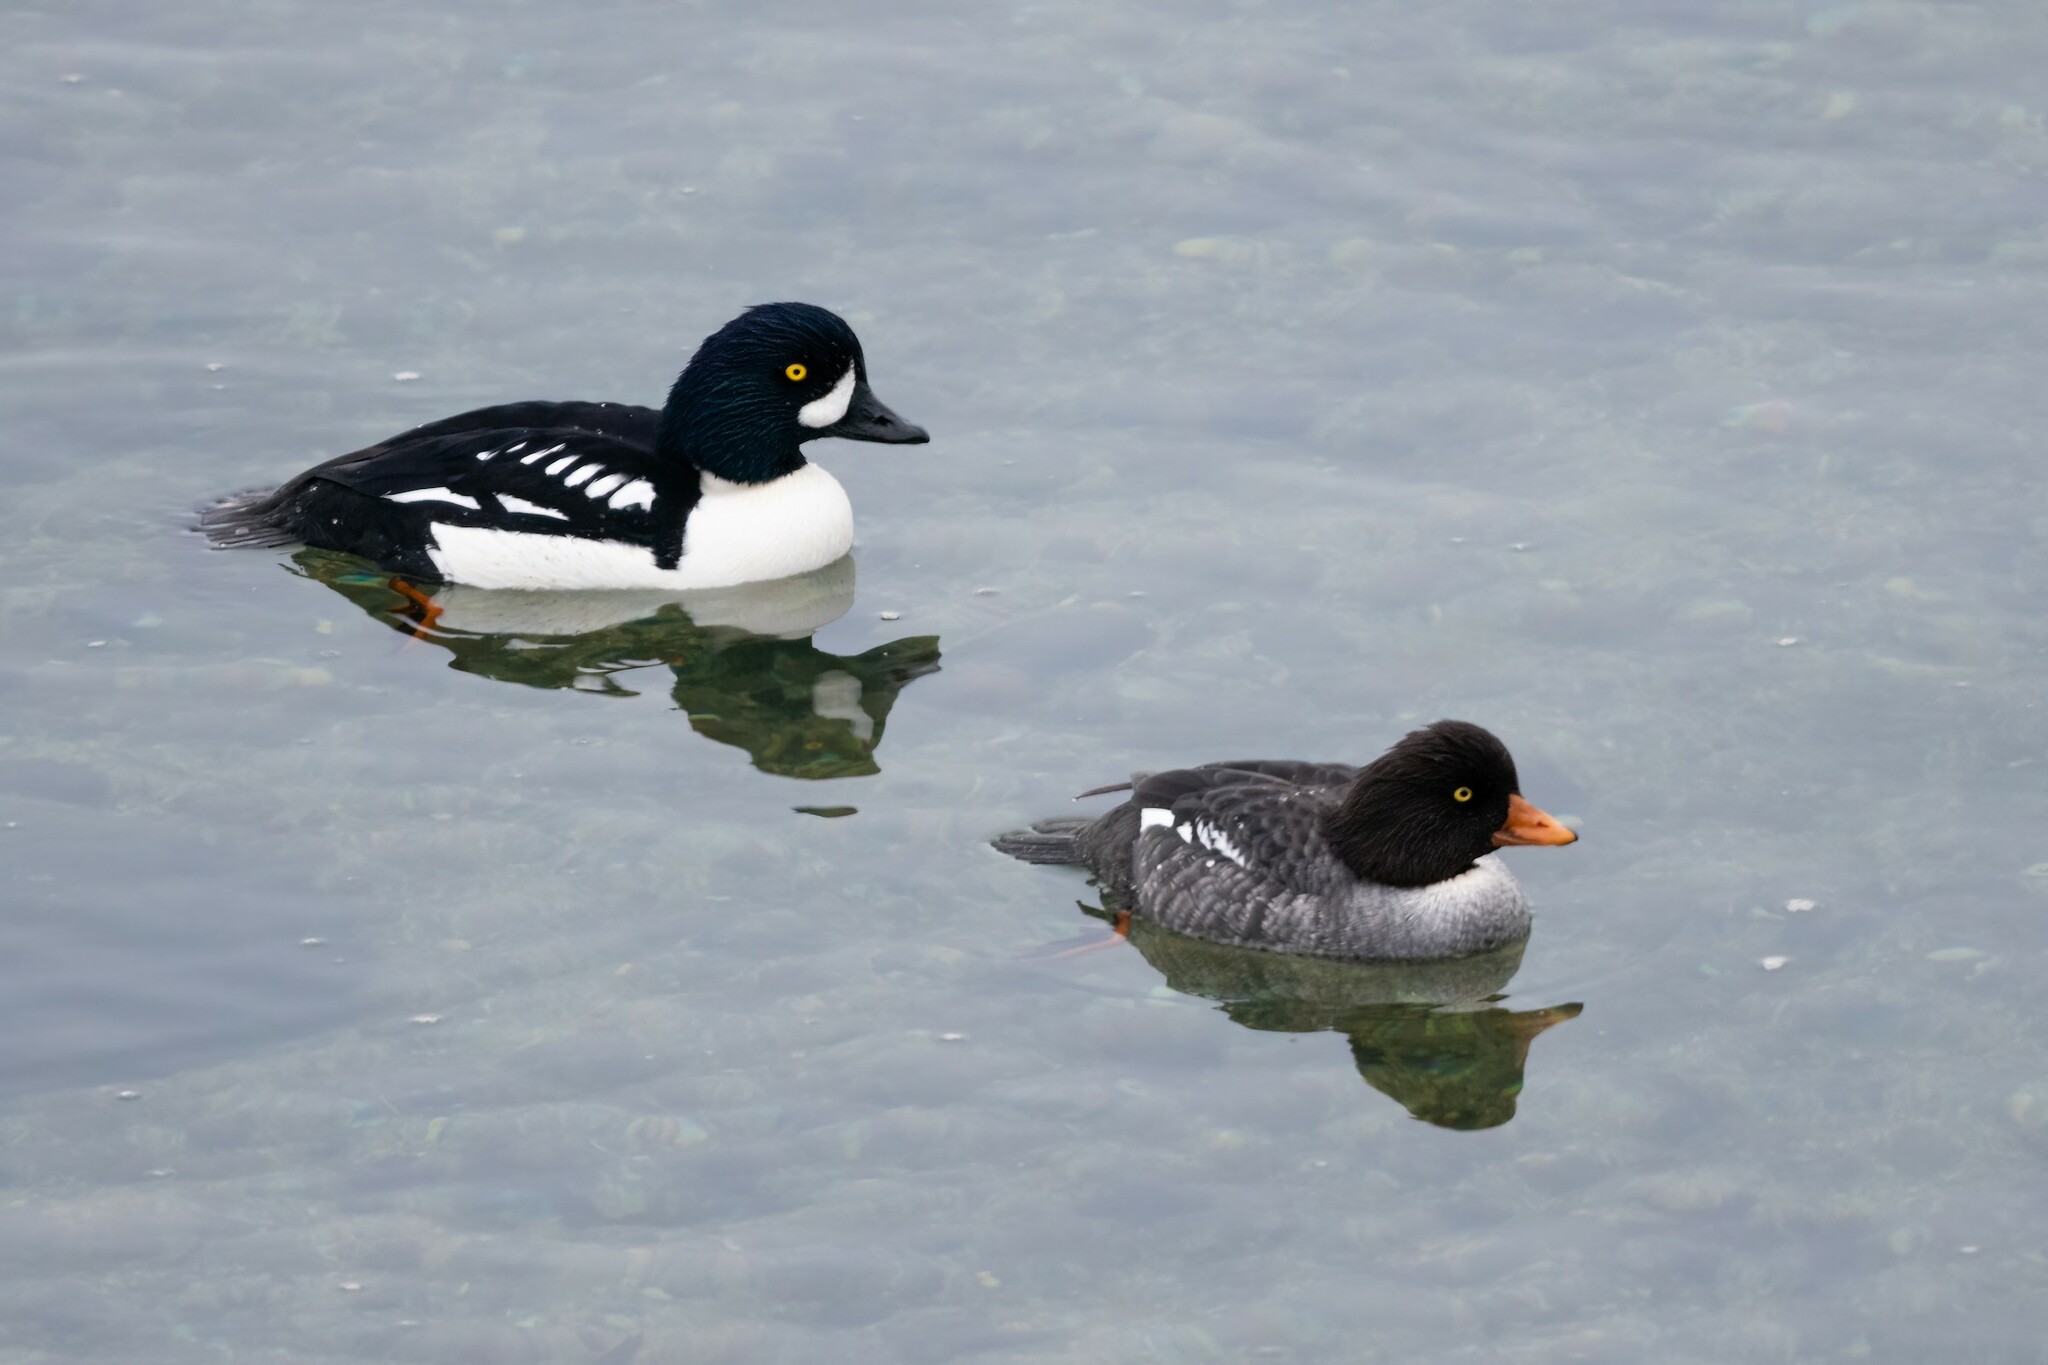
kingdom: Animalia
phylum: Chordata
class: Aves
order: Anseriformes
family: Anatidae
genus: Bucephala
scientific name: Bucephala islandica
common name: Barrow's goldeneye
